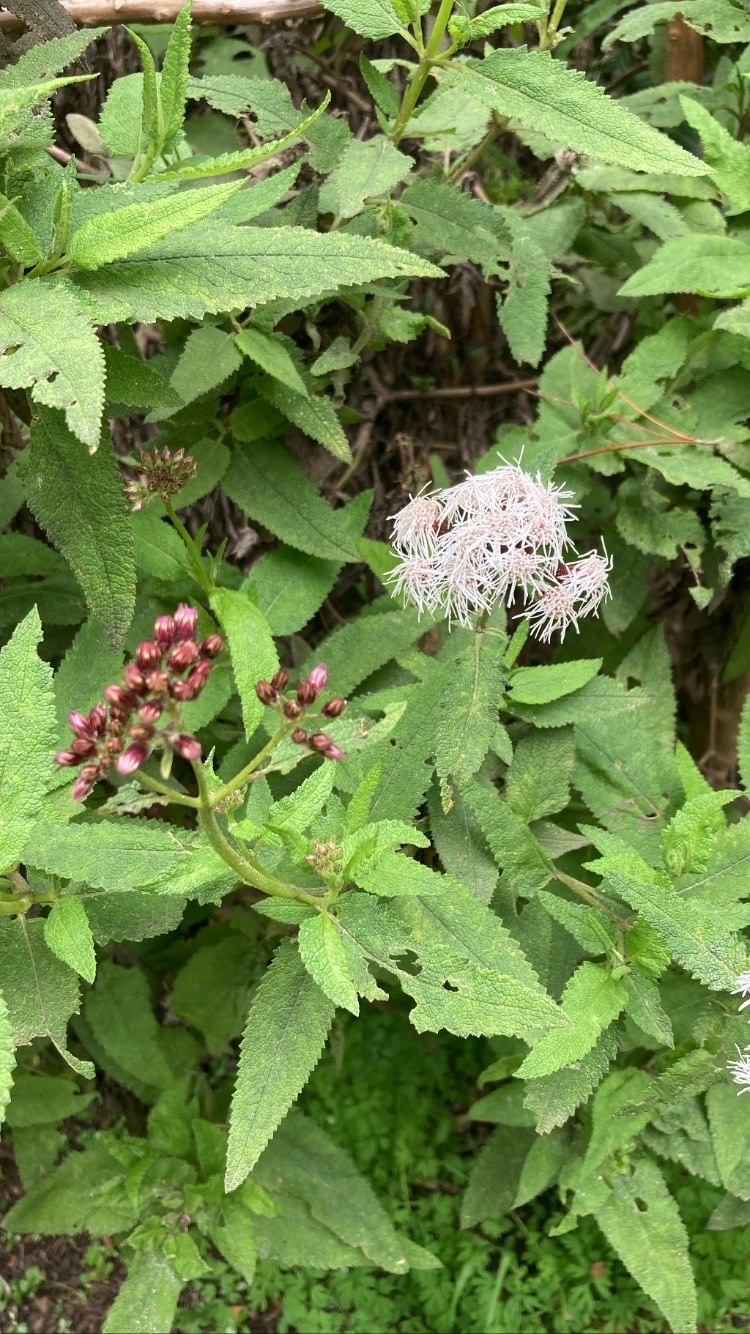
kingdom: Plantae
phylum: Tracheophyta
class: Magnoliopsida
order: Asterales
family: Asteraceae
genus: Aristeguietia
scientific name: Aristeguietia salvia
